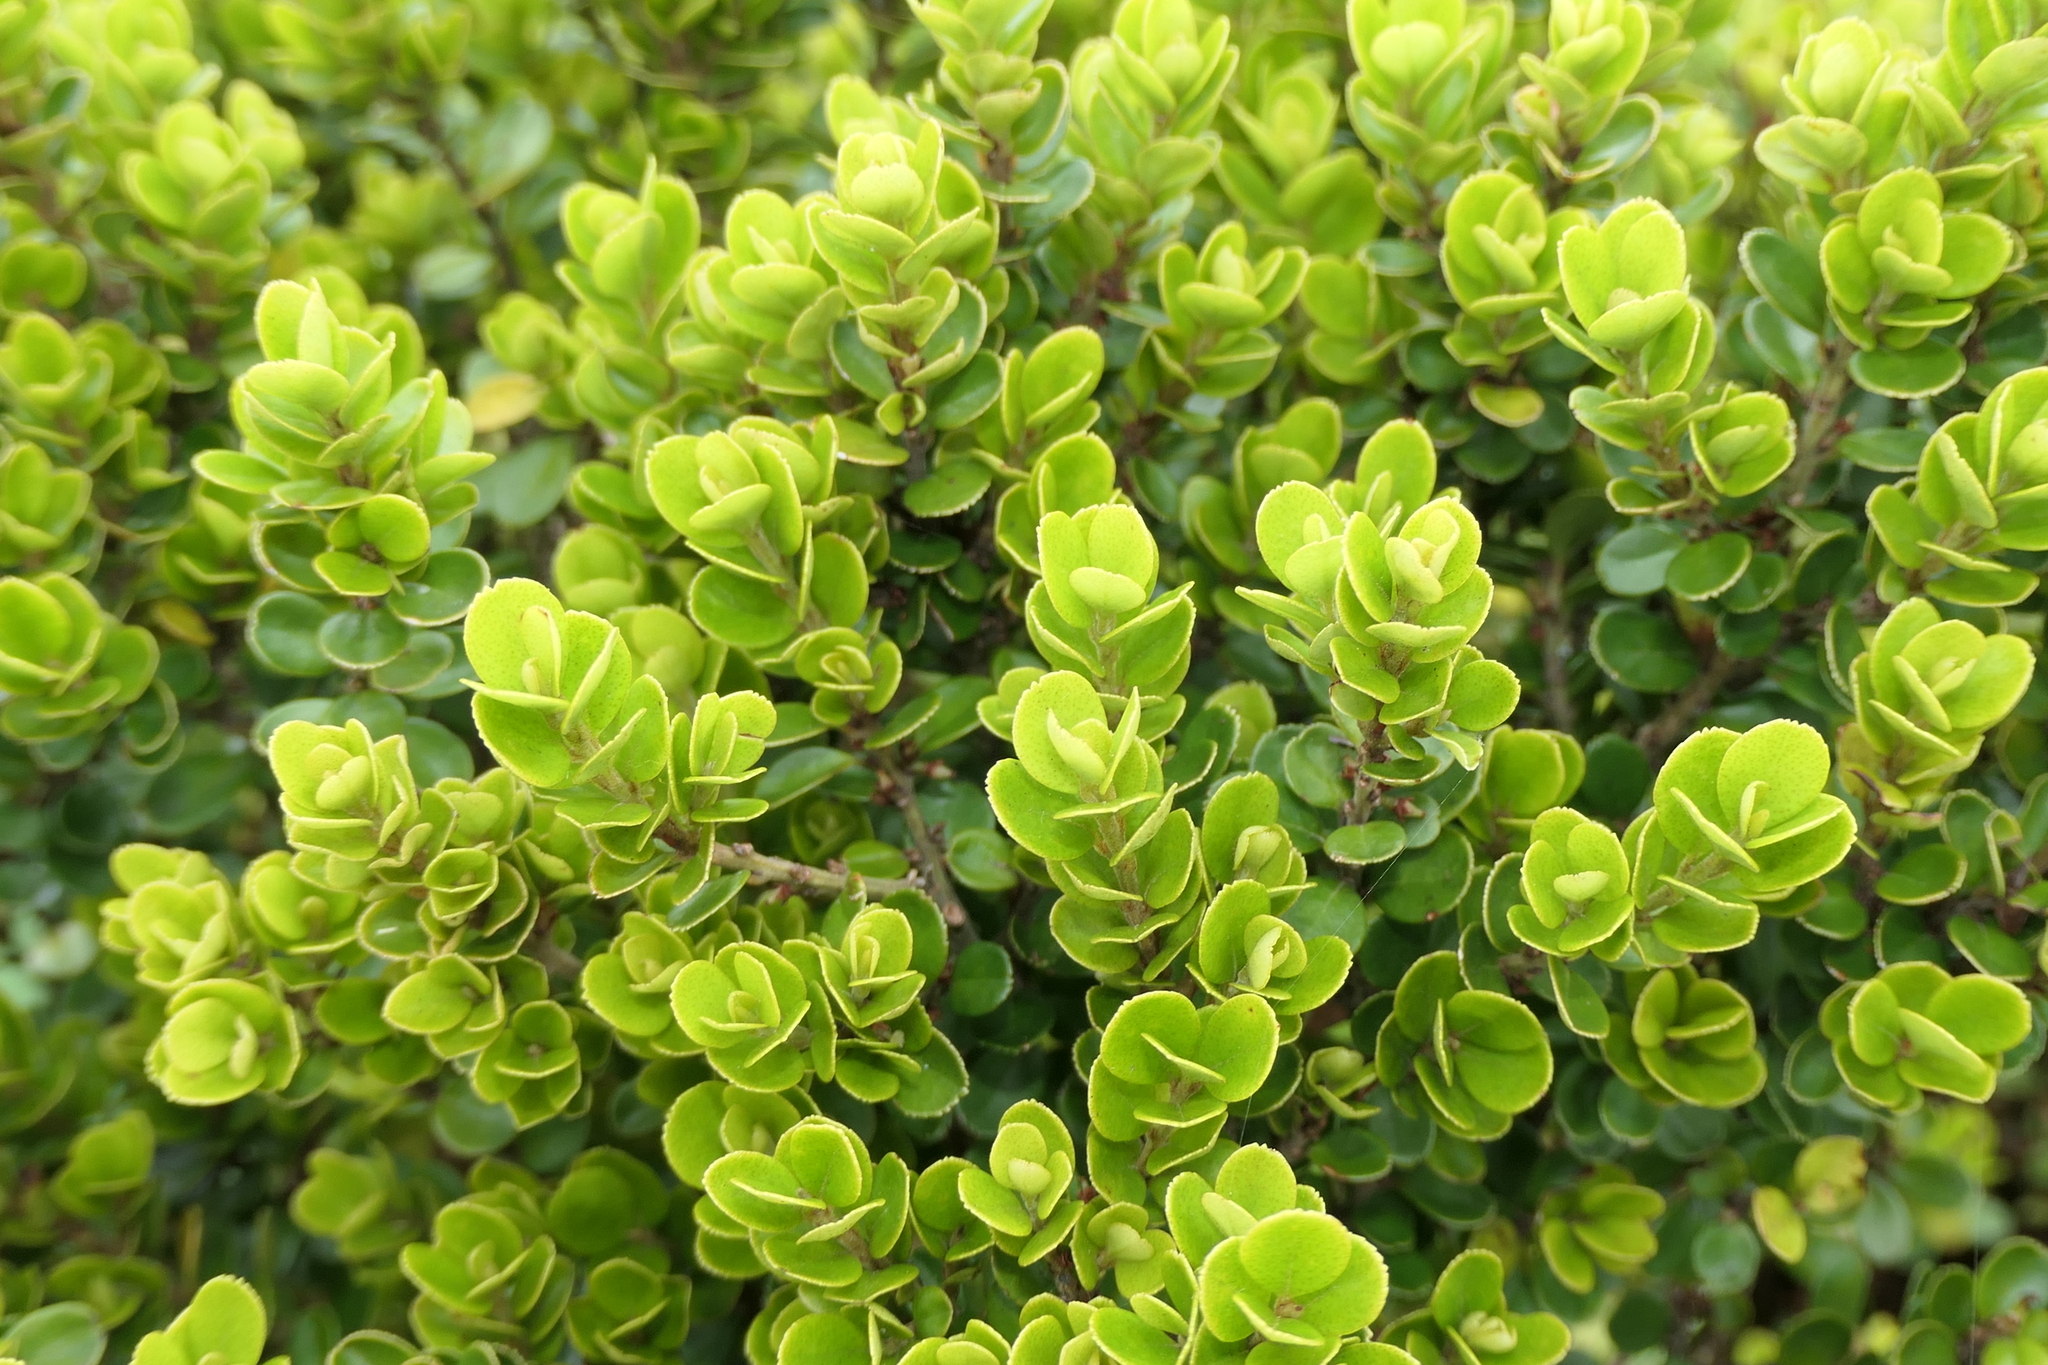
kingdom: Plantae
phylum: Tracheophyta
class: Magnoliopsida
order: Ericales
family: Primulaceae
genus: Myrsine
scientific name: Myrsine africana
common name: African-boxwood
